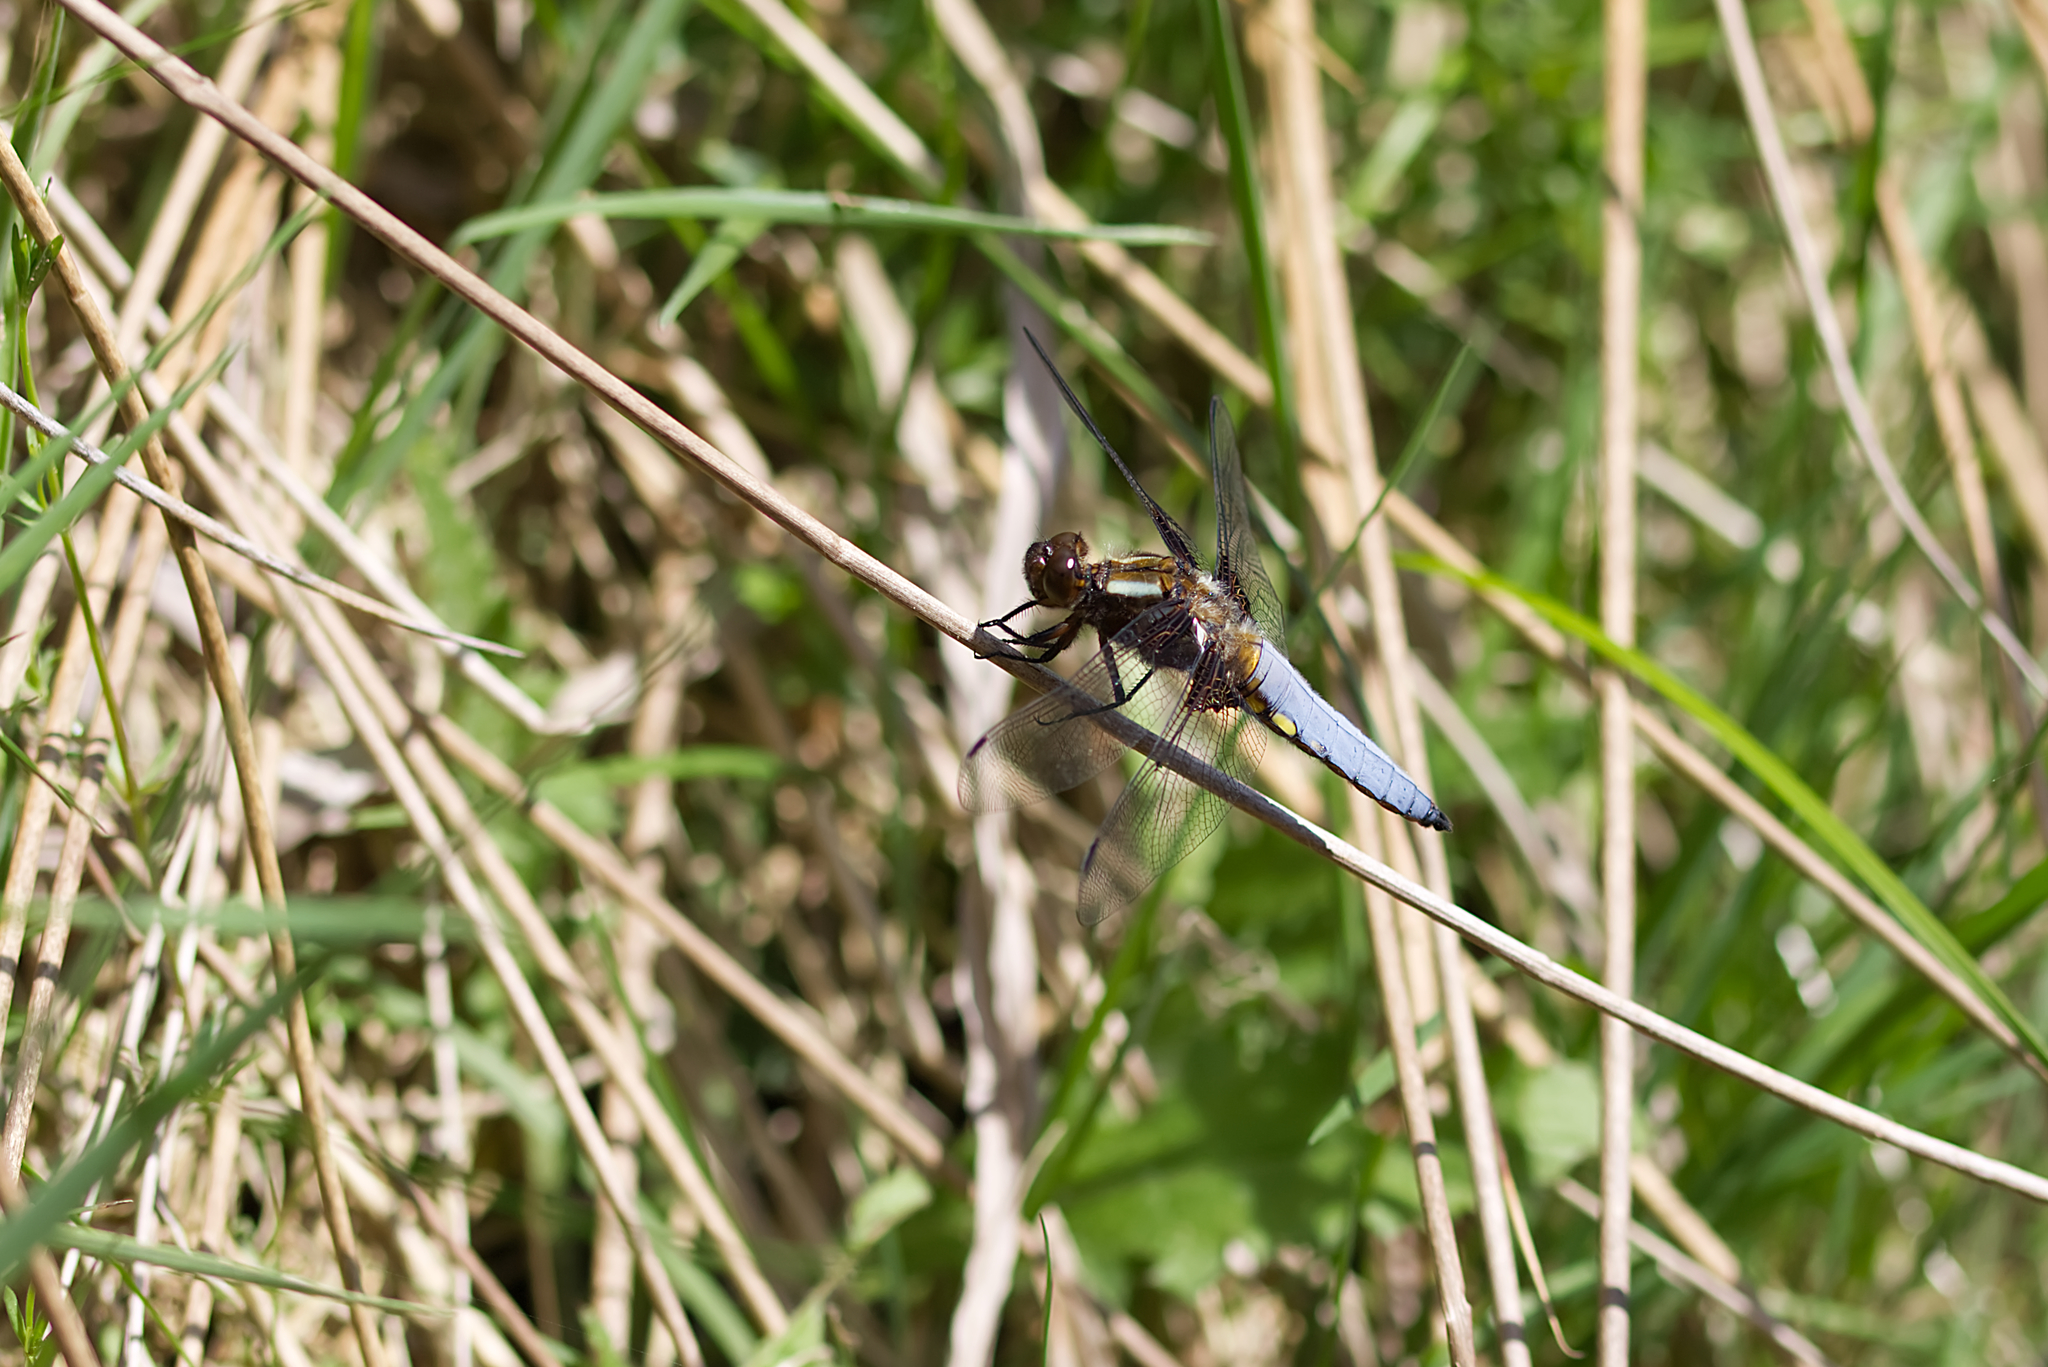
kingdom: Animalia
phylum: Arthropoda
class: Insecta
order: Odonata
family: Libellulidae
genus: Libellula
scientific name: Libellula depressa
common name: Broad-bodied chaser
